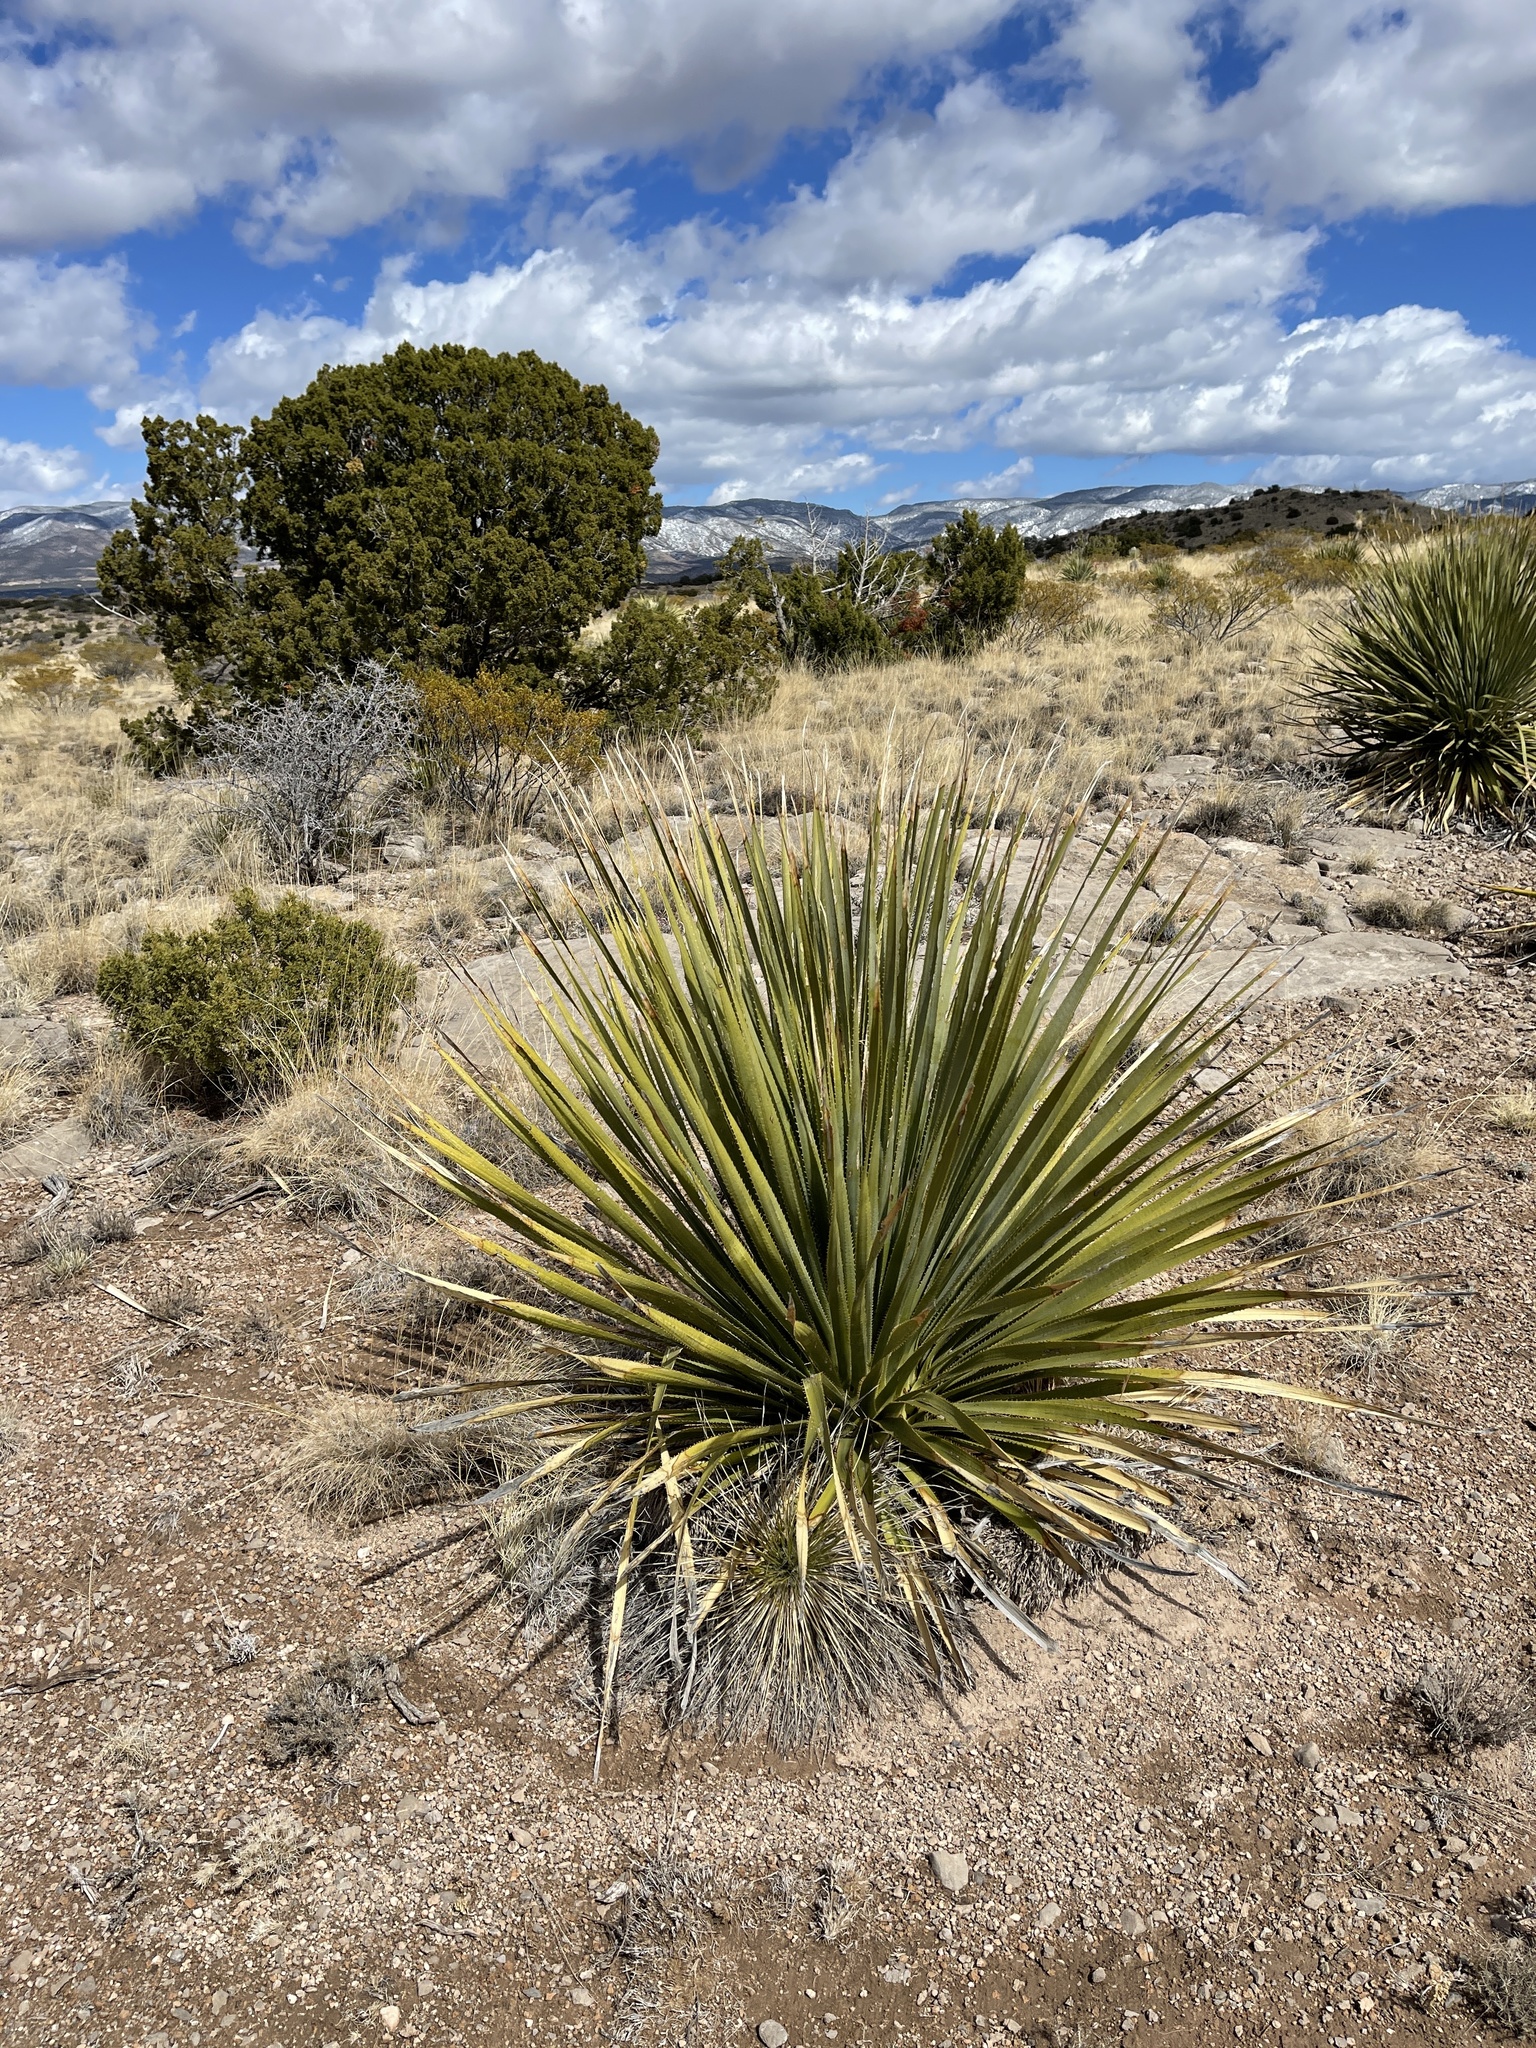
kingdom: Plantae
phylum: Tracheophyta
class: Liliopsida
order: Asparagales
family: Asparagaceae
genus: Dasylirion
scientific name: Dasylirion wheeleri
